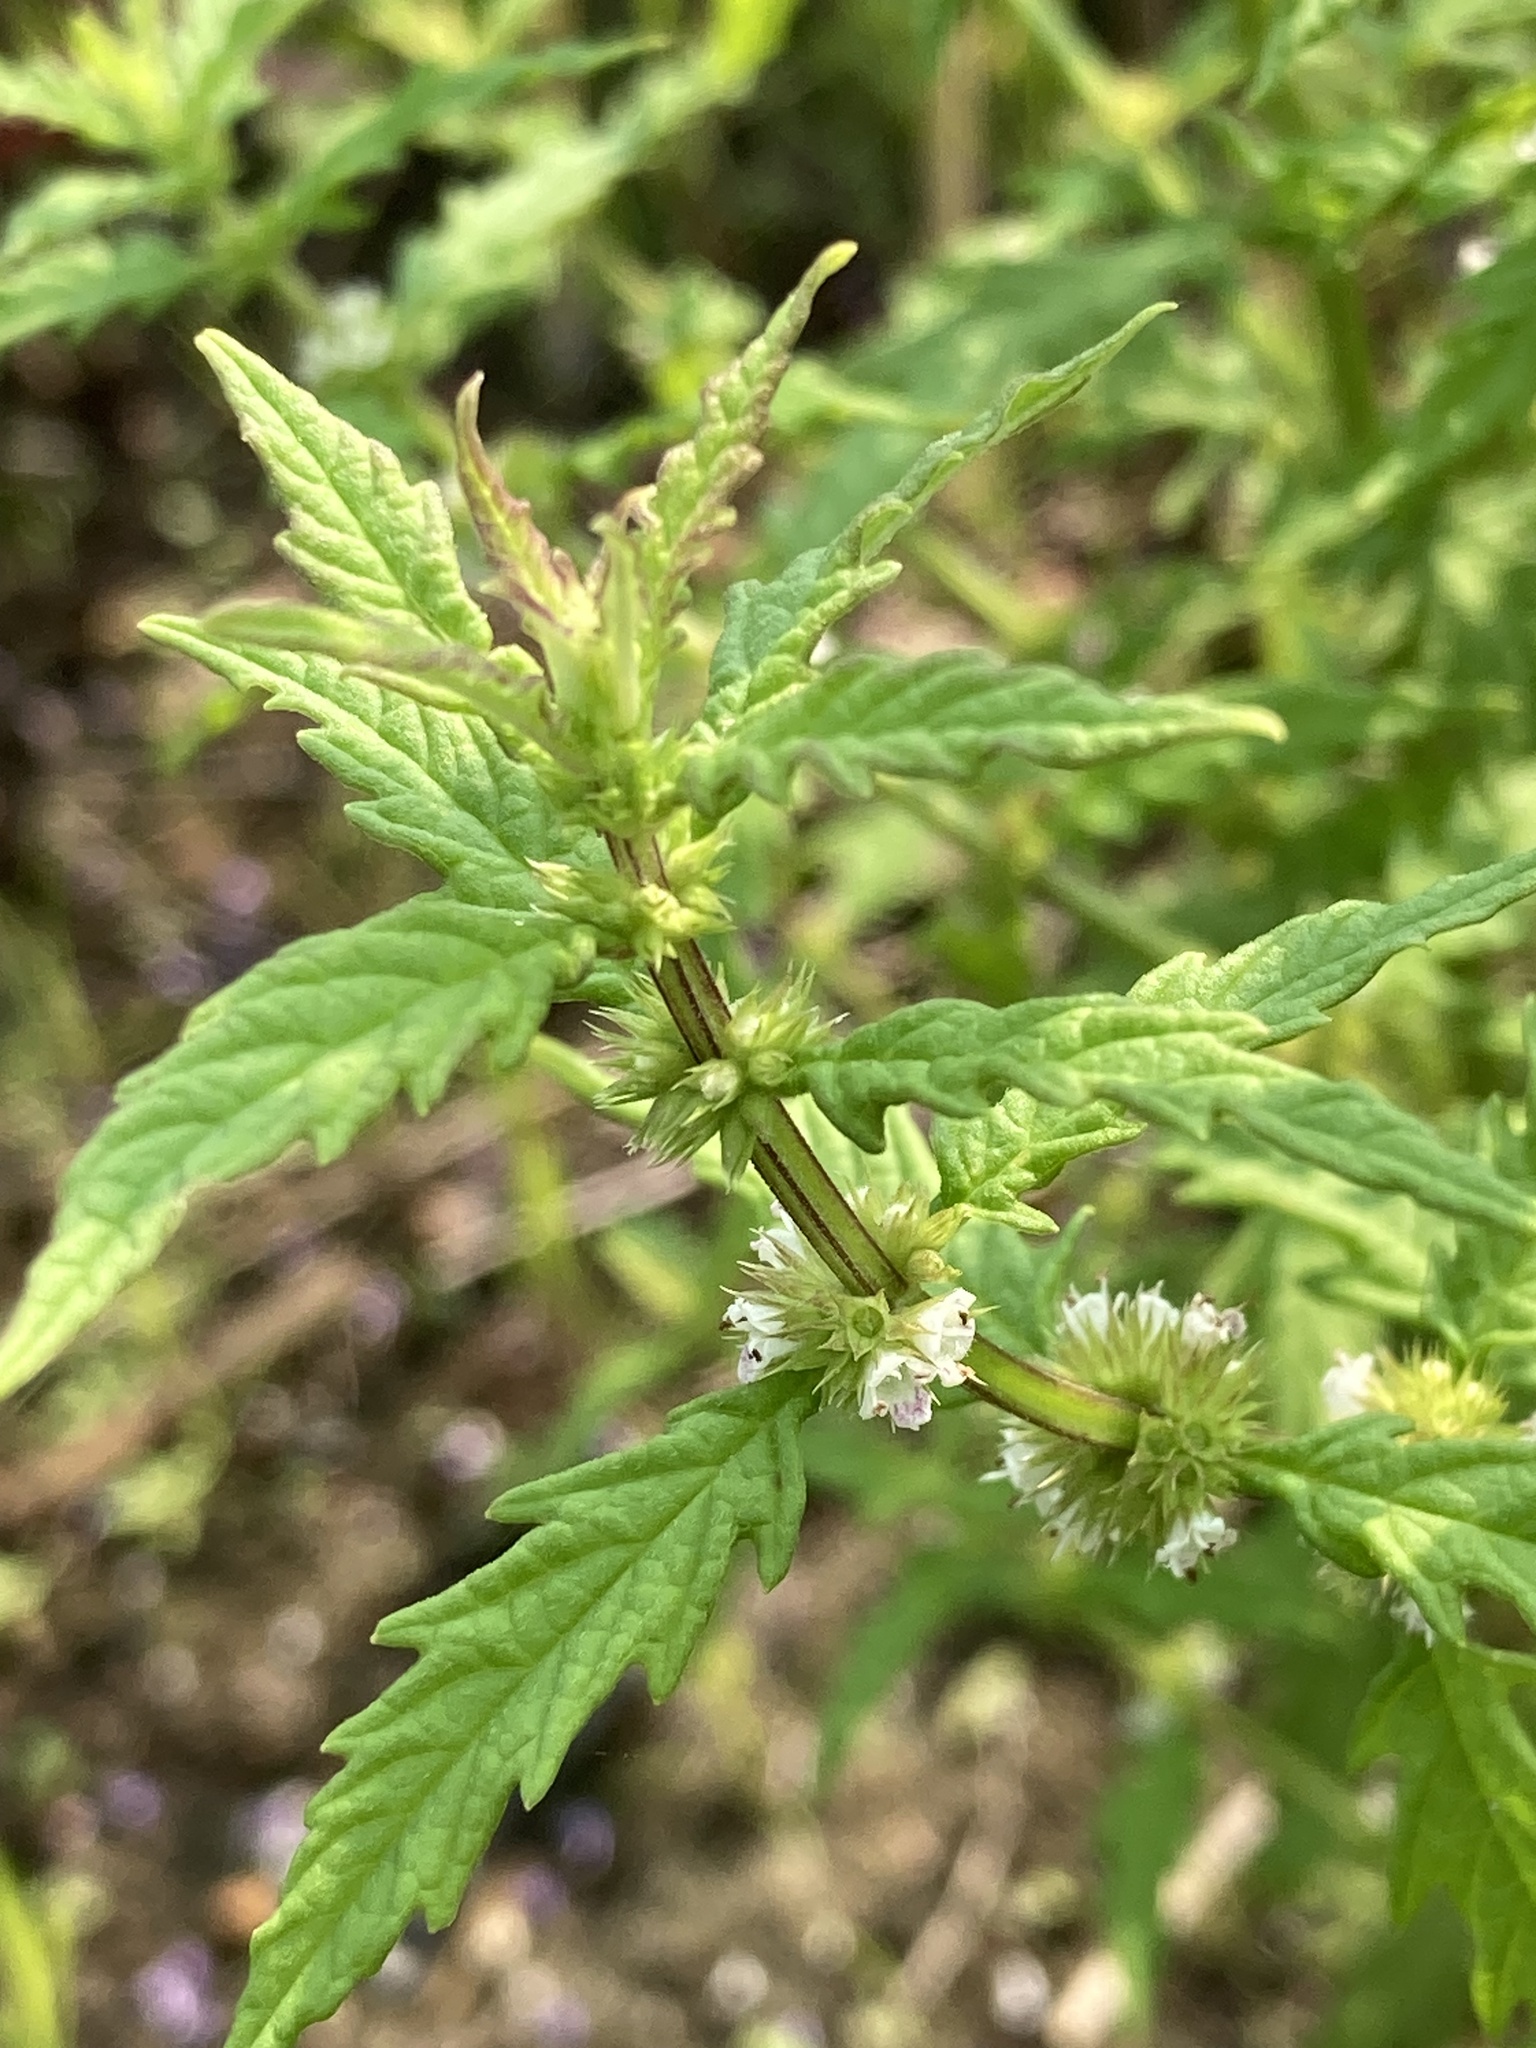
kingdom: Plantae
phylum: Tracheophyta
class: Magnoliopsida
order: Lamiales
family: Lamiaceae
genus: Lycopus
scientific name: Lycopus europaeus
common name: European bugleweed
